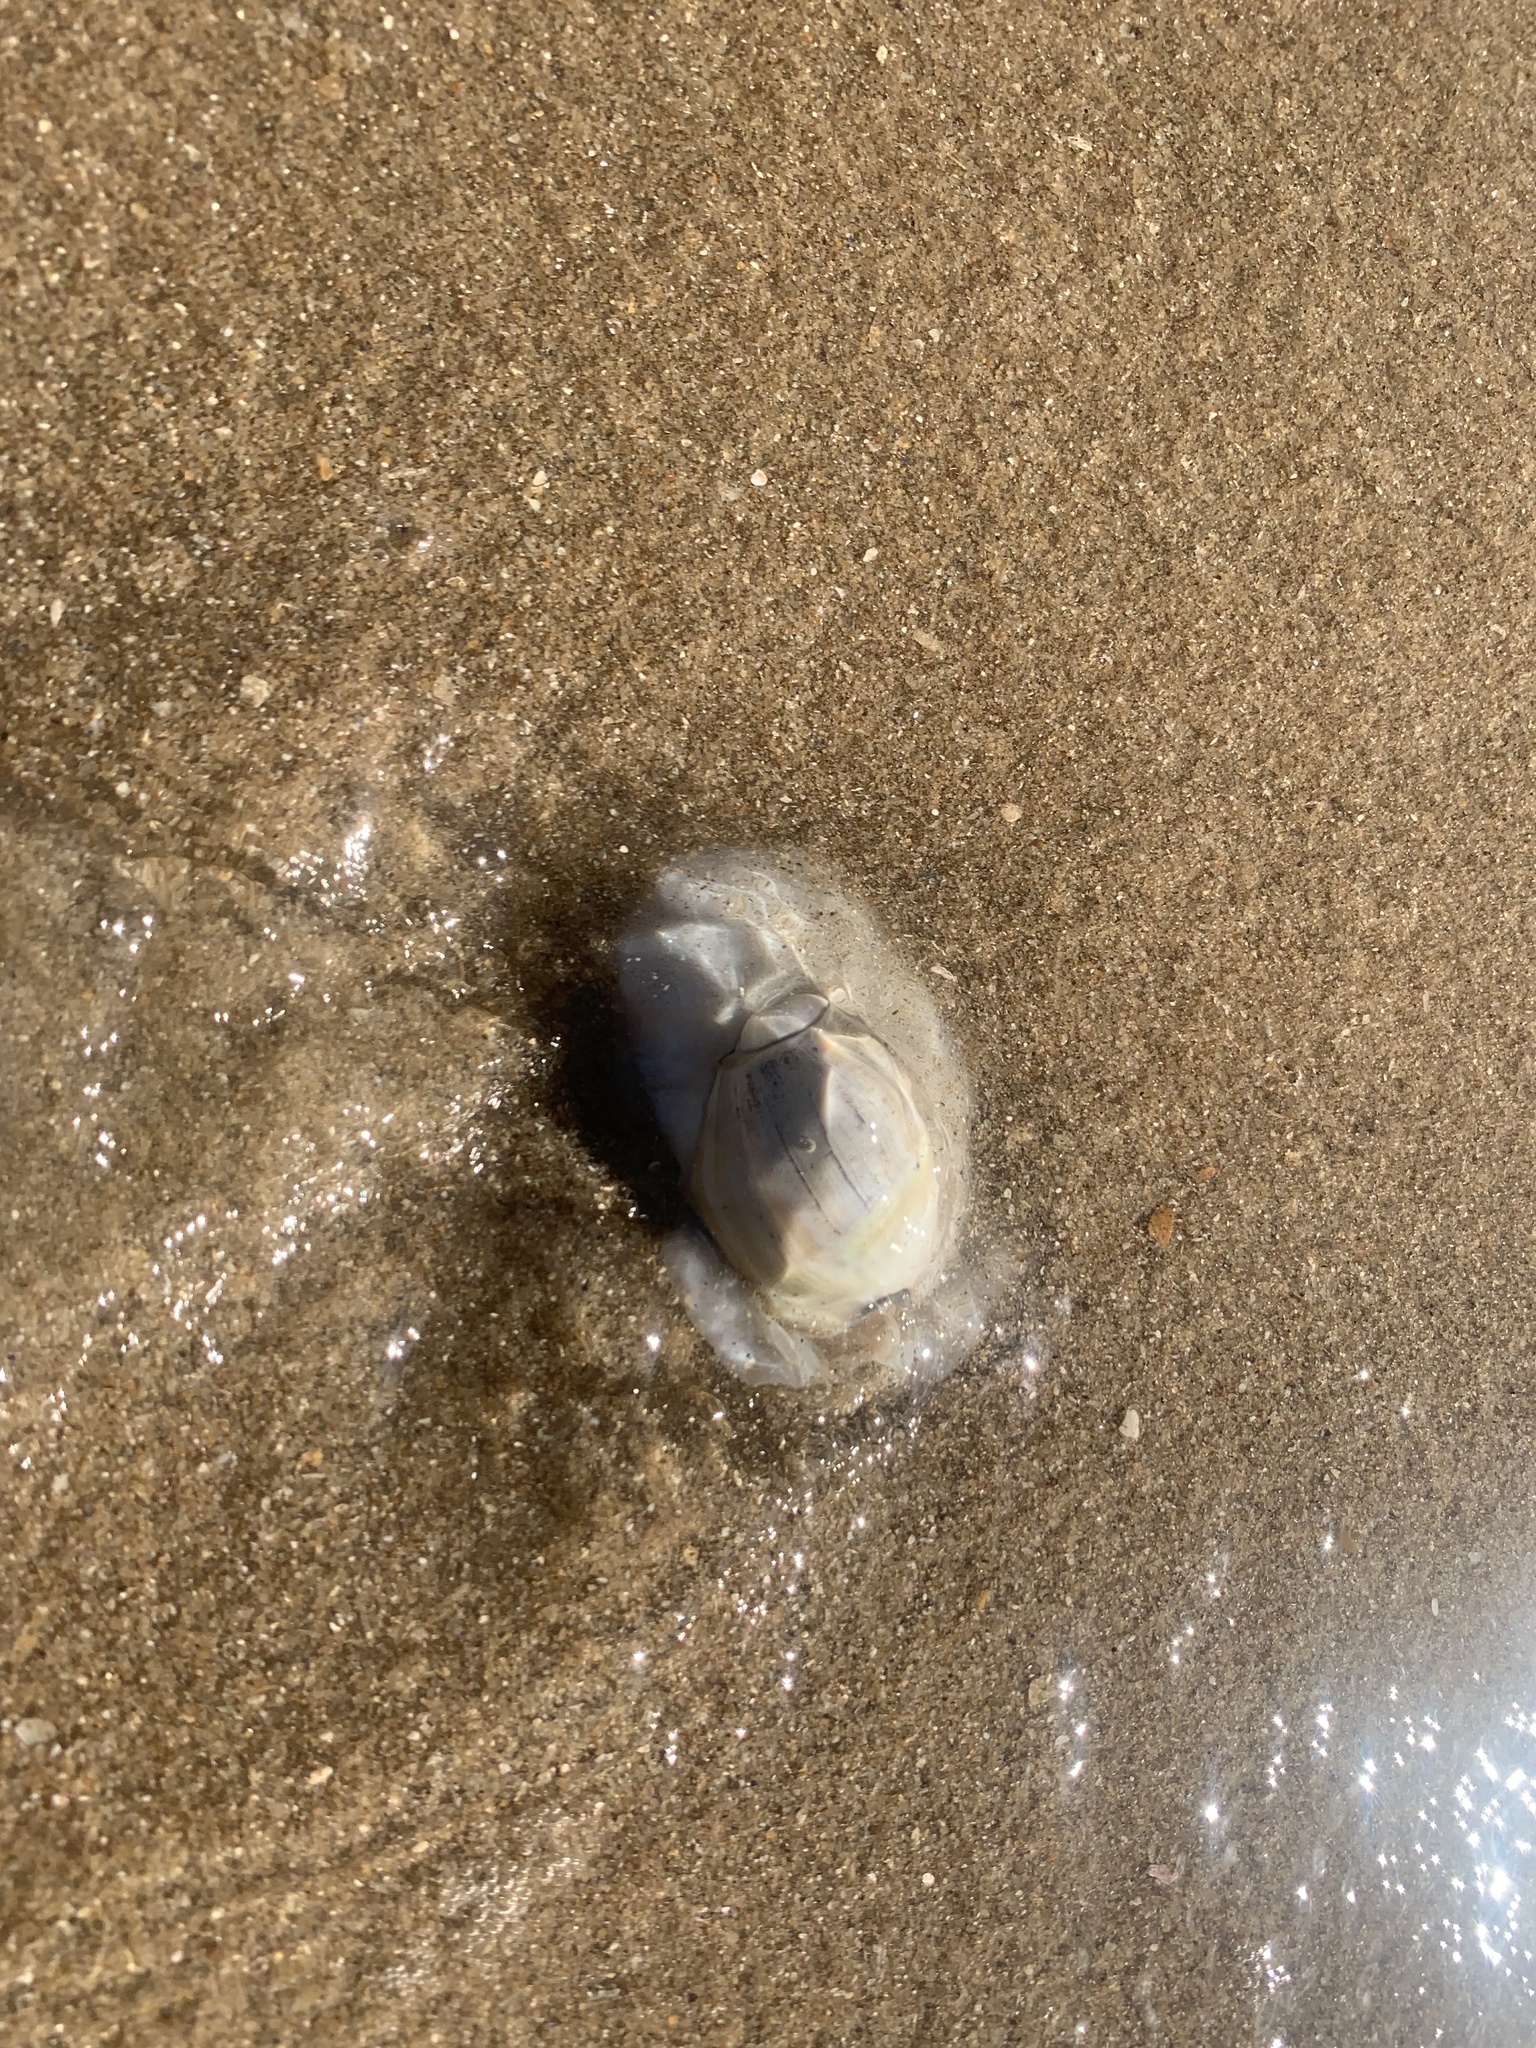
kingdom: Animalia
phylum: Mollusca
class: Gastropoda
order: Neogastropoda
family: Olividae
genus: Olivancillaria
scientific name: Olivancillaria auricularia
